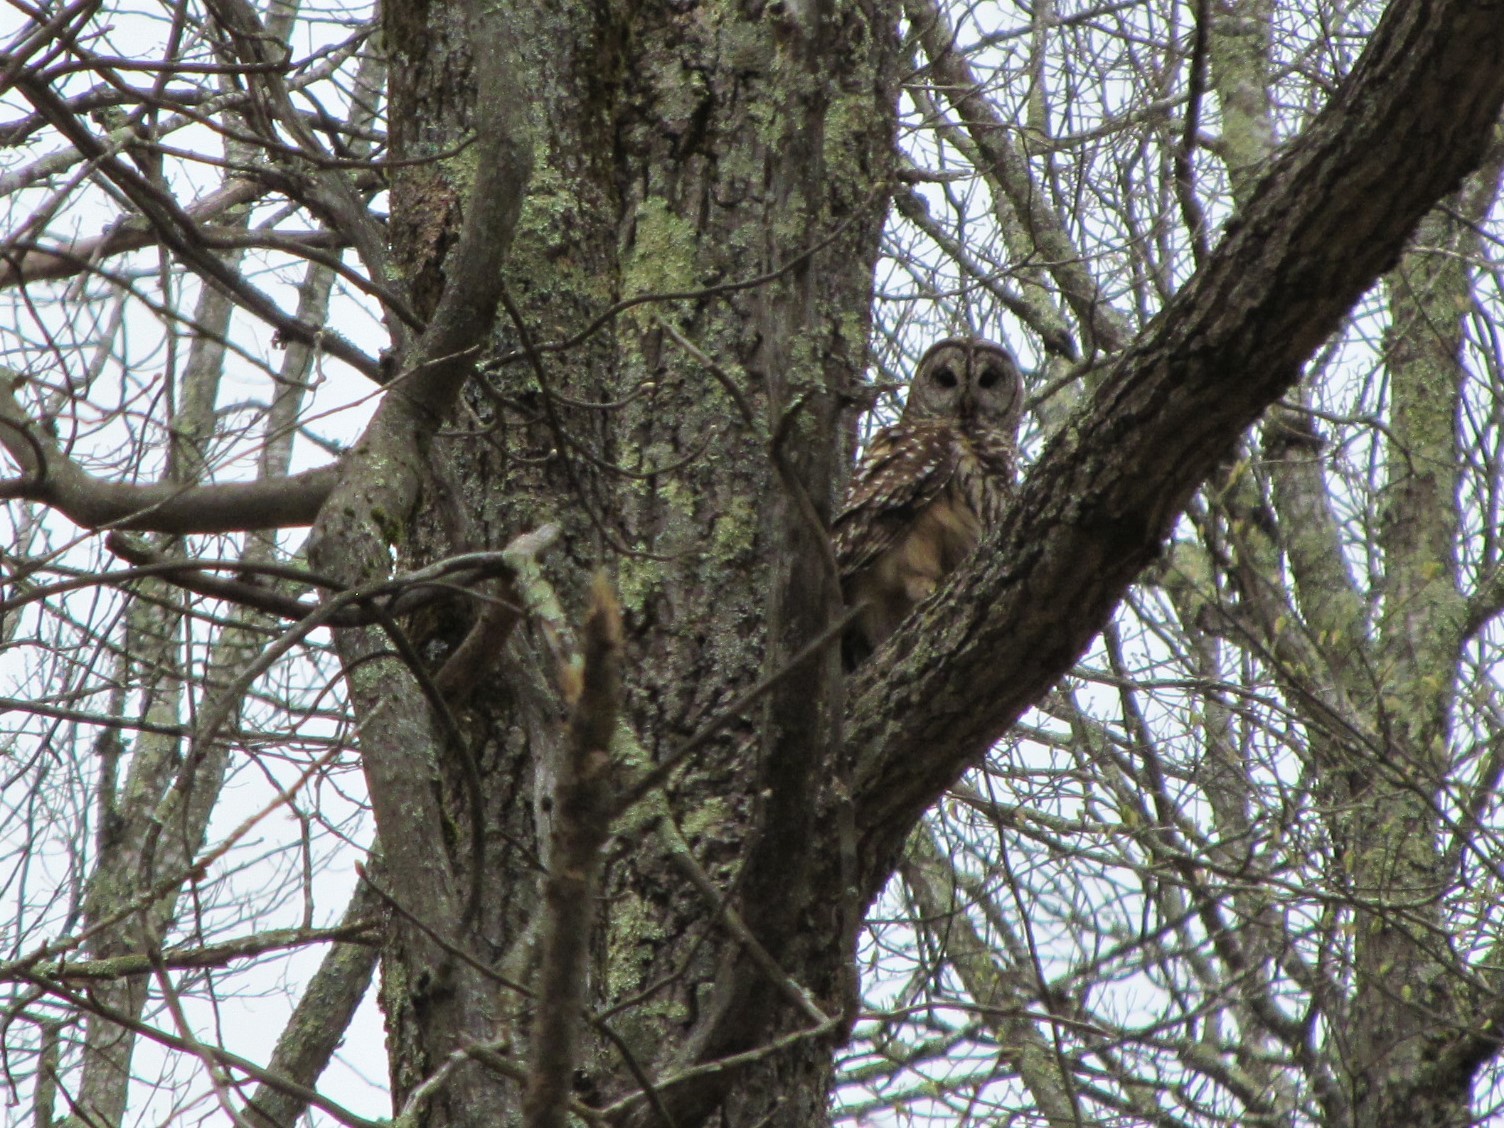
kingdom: Animalia
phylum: Chordata
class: Aves
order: Strigiformes
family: Strigidae
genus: Strix
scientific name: Strix varia
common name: Barred owl
